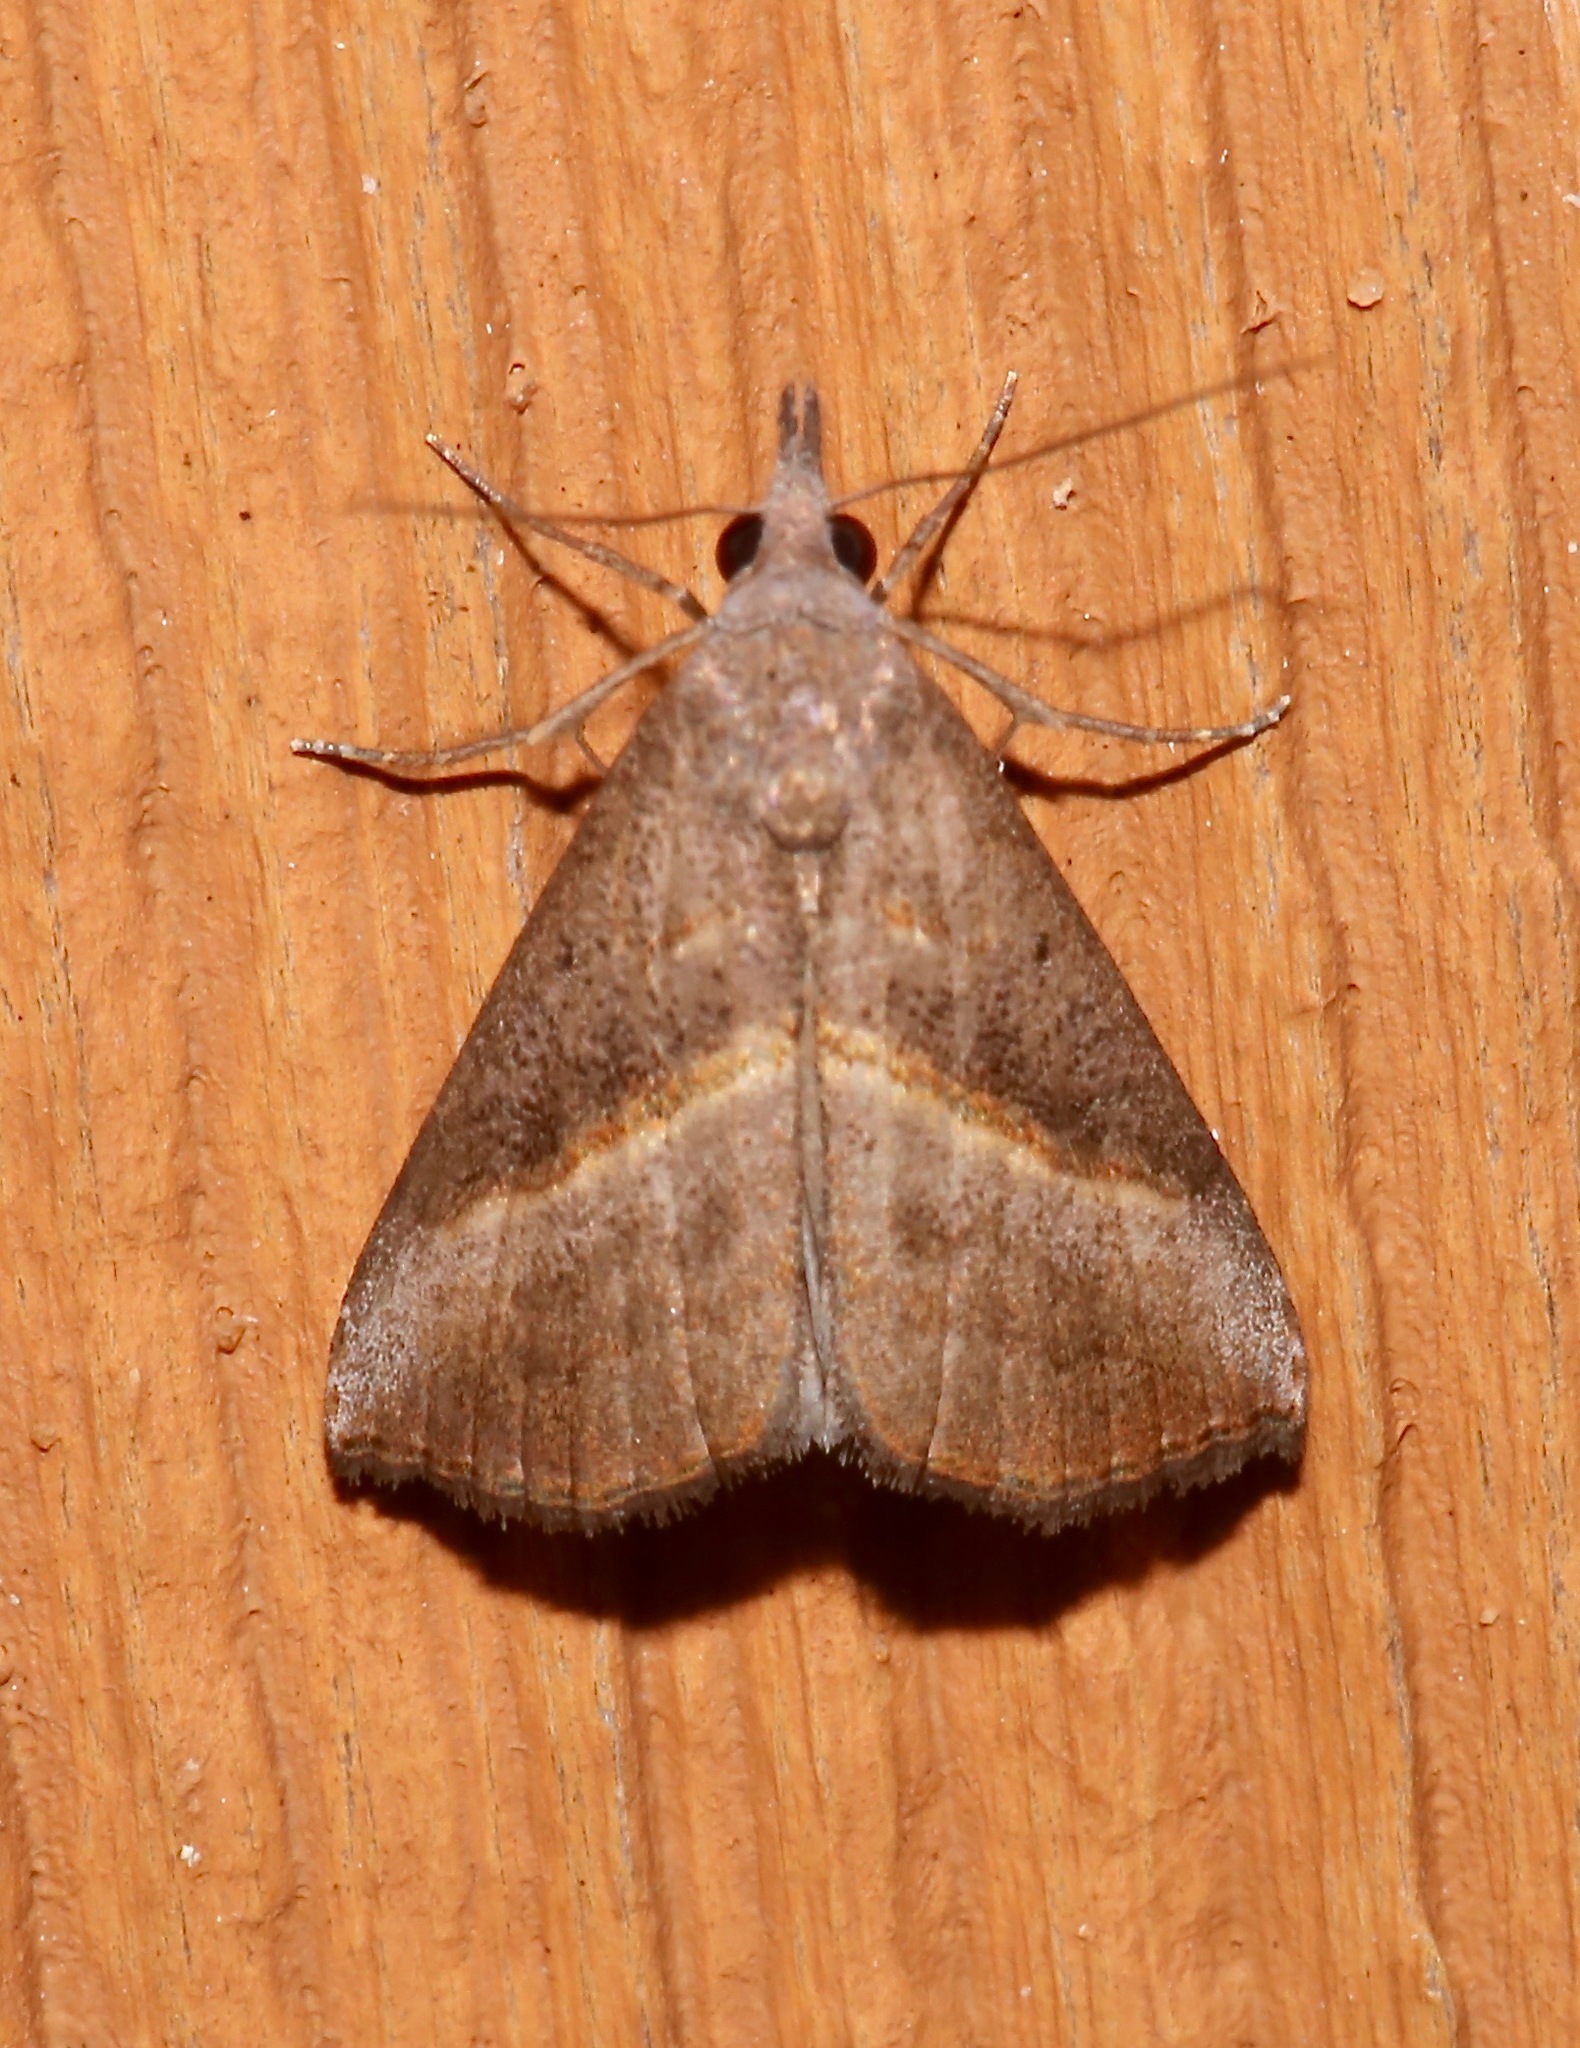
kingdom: Animalia
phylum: Arthropoda
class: Insecta
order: Lepidoptera
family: Erebidae
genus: Hypena
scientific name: Hypena degesalis
